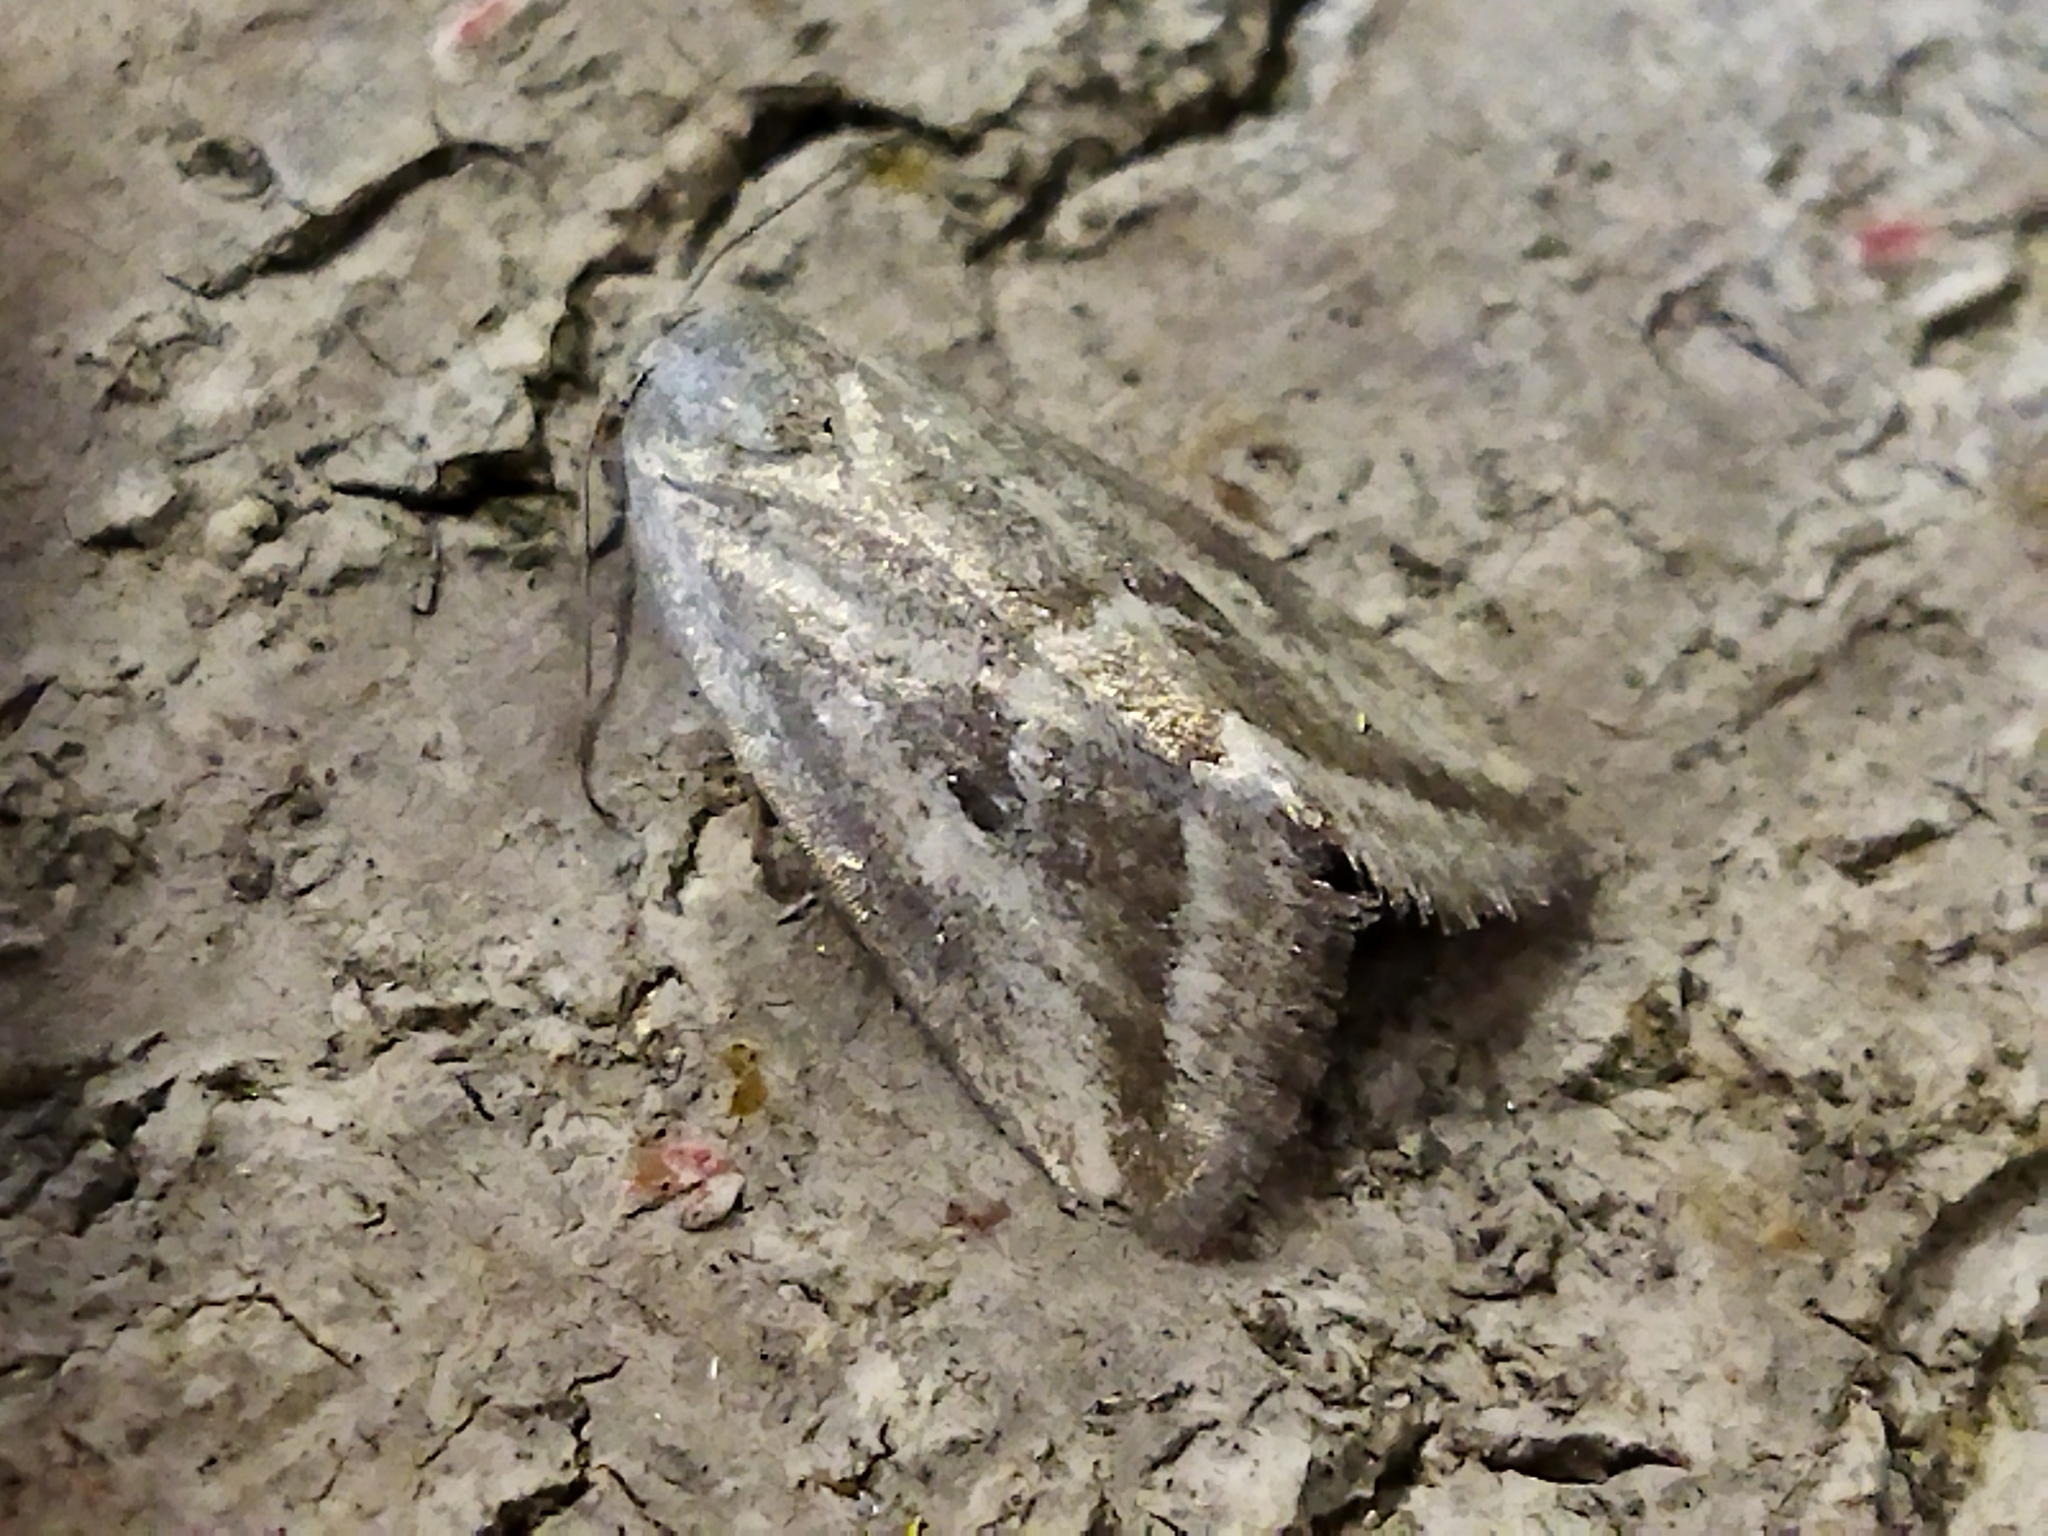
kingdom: Animalia
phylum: Arthropoda
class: Insecta
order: Lepidoptera
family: Noctuidae
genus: Phyllophila
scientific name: Phyllophila obliterata
